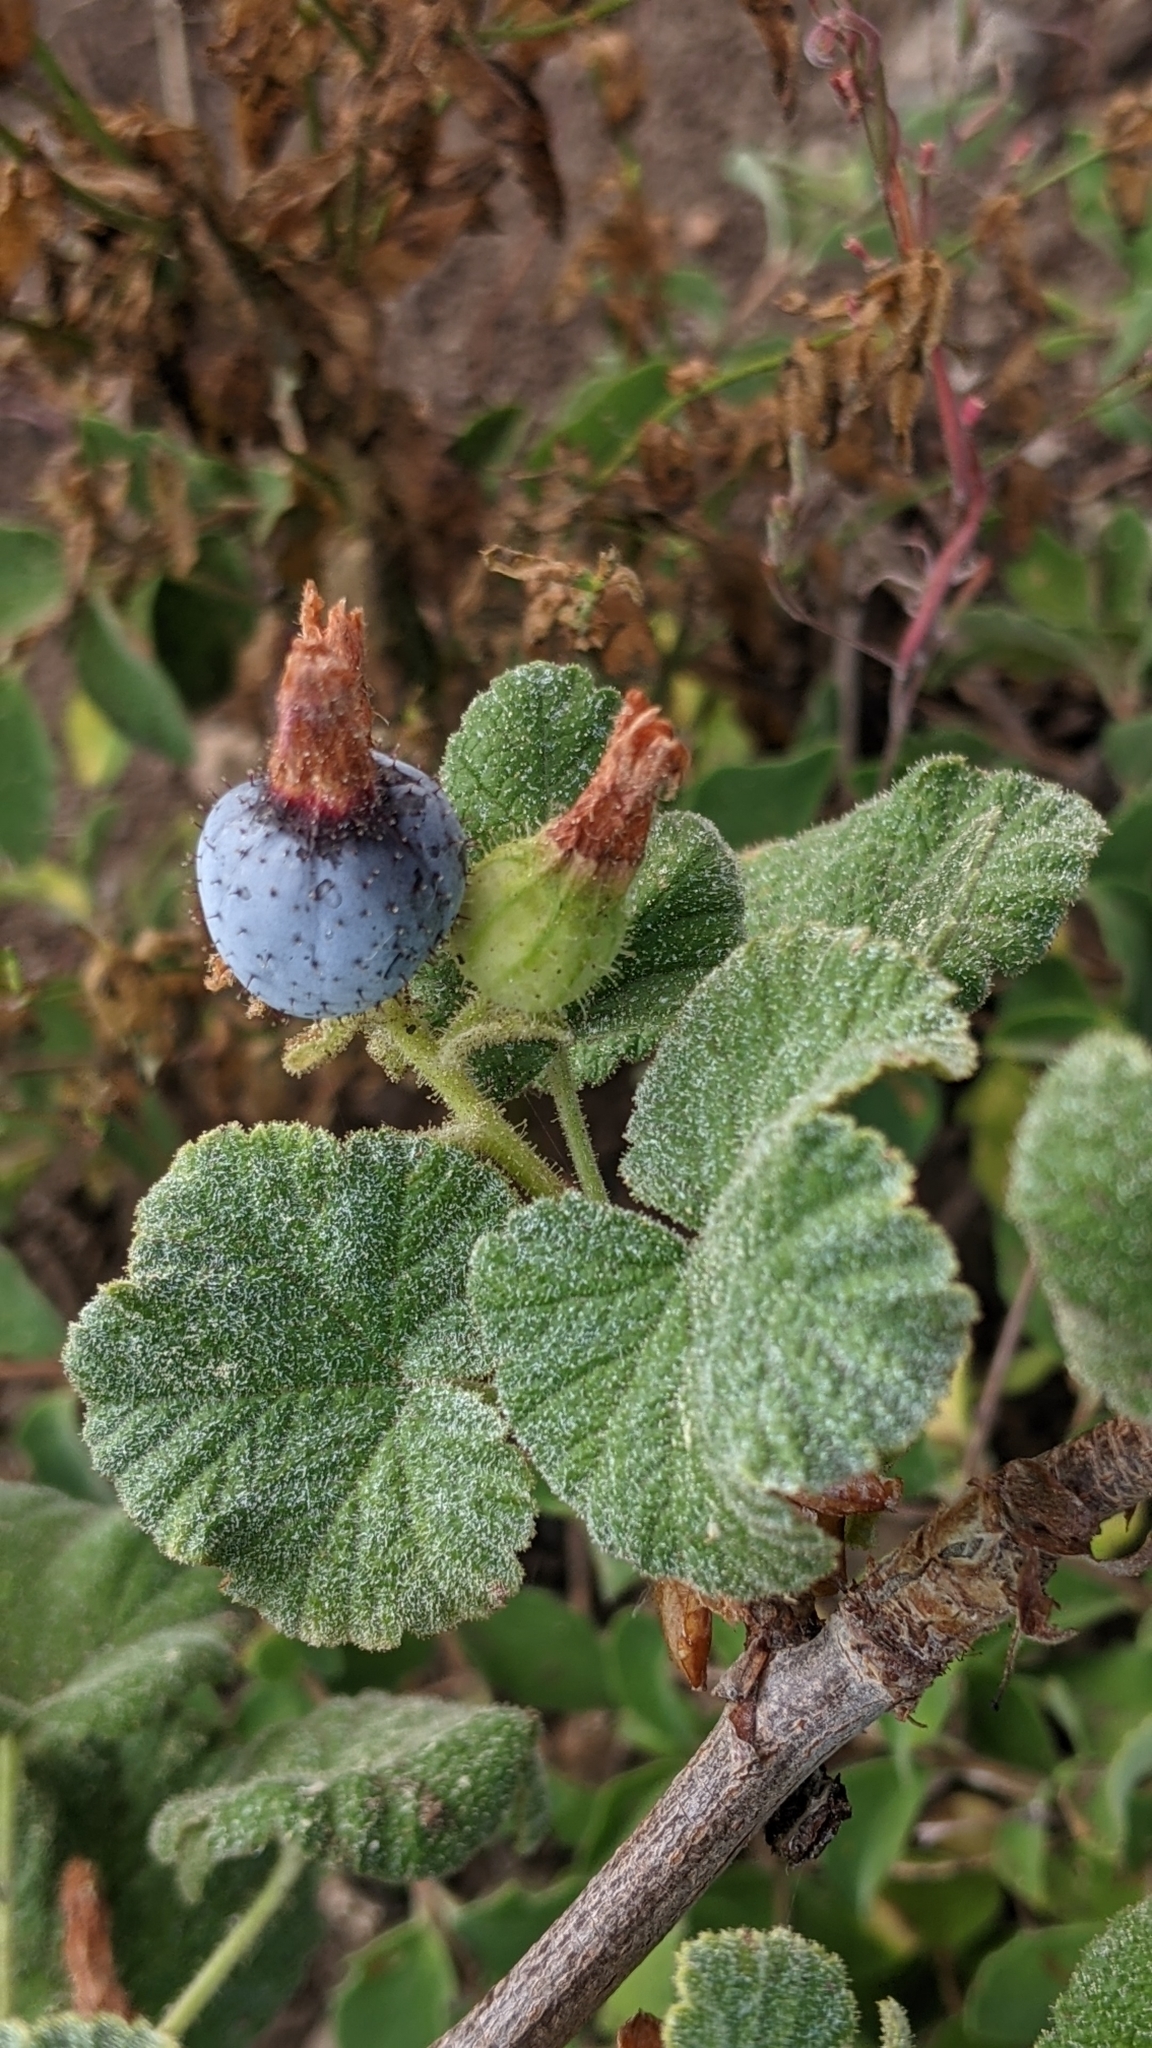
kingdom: Plantae
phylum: Tracheophyta
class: Magnoliopsida
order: Saxifragales
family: Grossulariaceae
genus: Ribes
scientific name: Ribes viscosissimum
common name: Sticky currant
